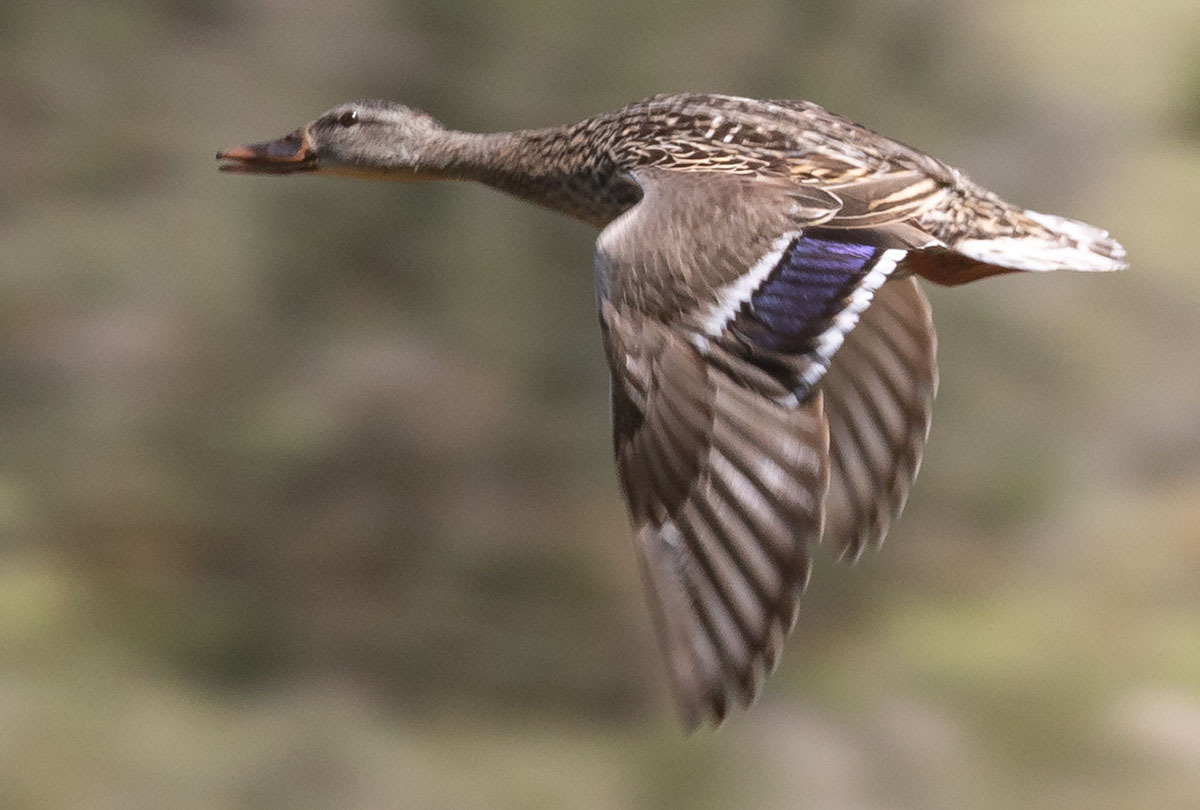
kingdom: Animalia
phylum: Chordata
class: Aves
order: Anseriformes
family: Anatidae
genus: Anas
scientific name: Anas platyrhynchos
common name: Mallard
